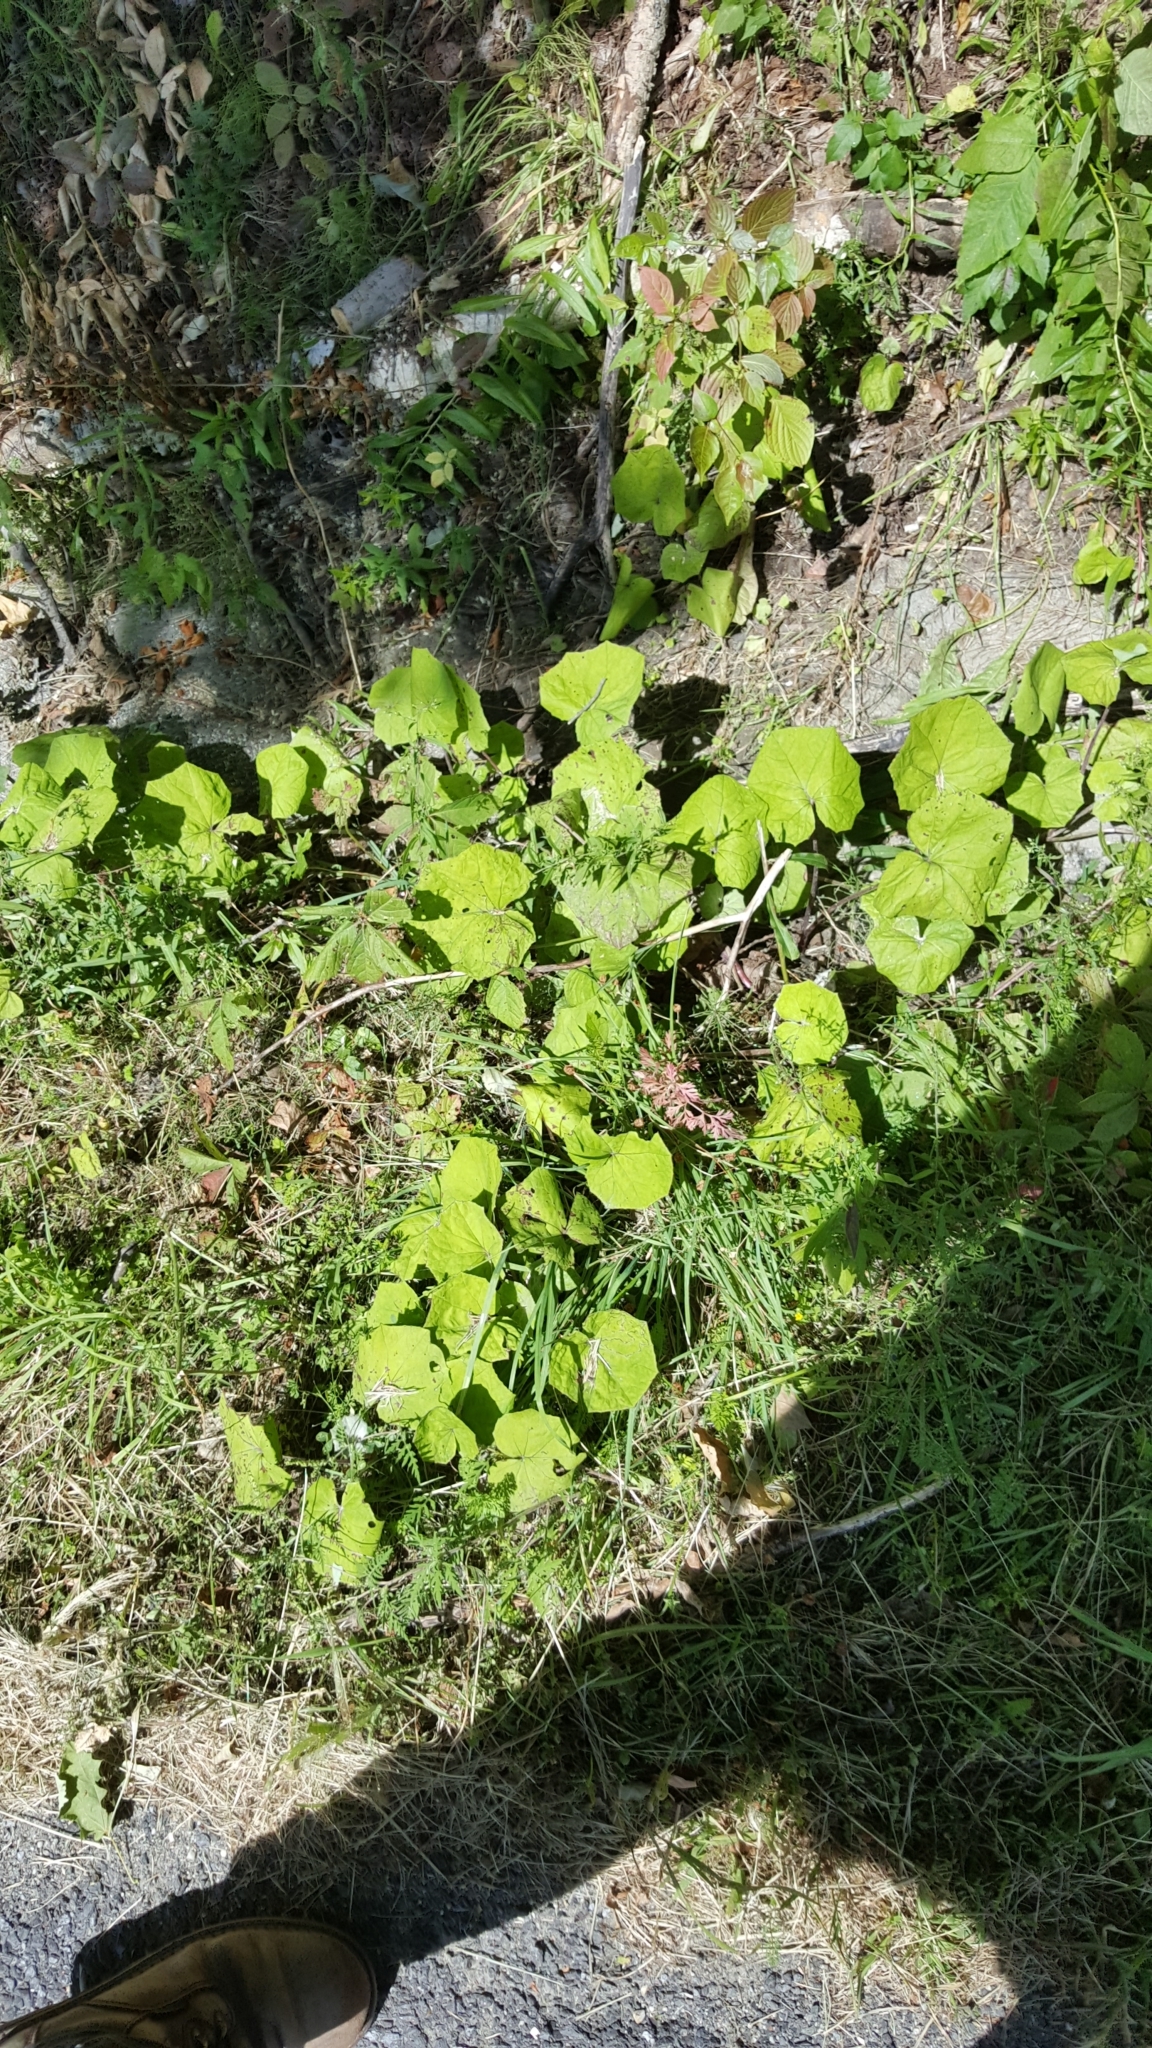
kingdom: Plantae
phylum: Tracheophyta
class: Magnoliopsida
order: Asterales
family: Asteraceae
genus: Tussilago
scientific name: Tussilago farfara
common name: Coltsfoot
